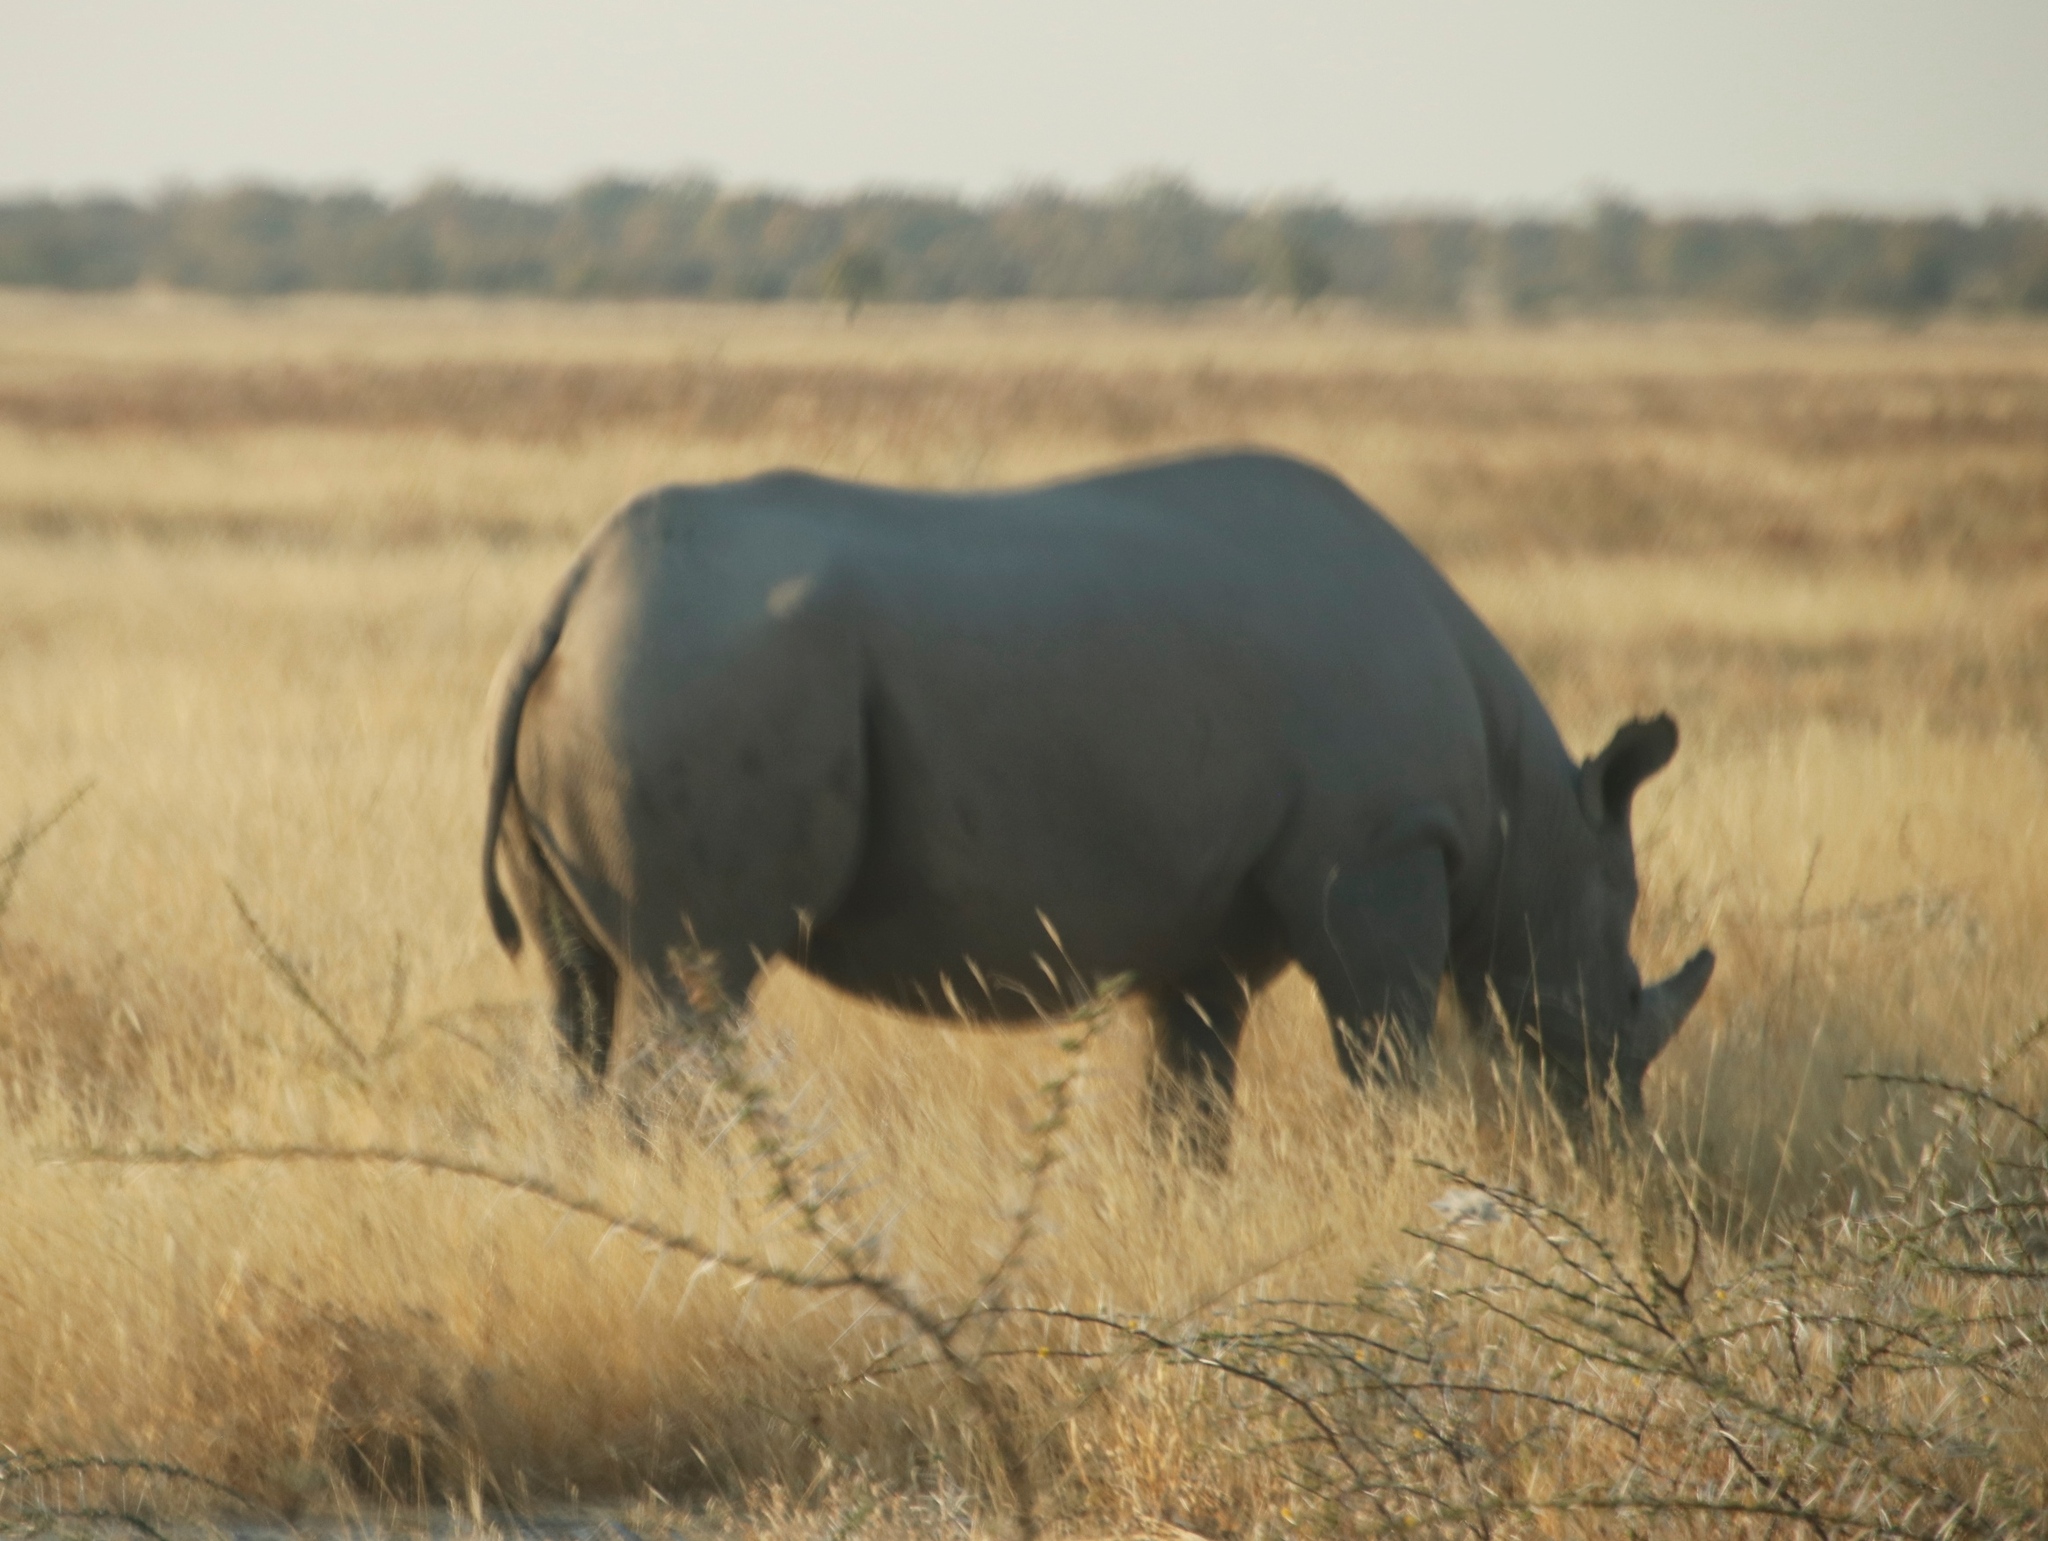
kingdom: Animalia
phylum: Chordata
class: Mammalia
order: Perissodactyla
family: Rhinocerotidae
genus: Diceros
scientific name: Diceros bicornis
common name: Black rhinoceros
